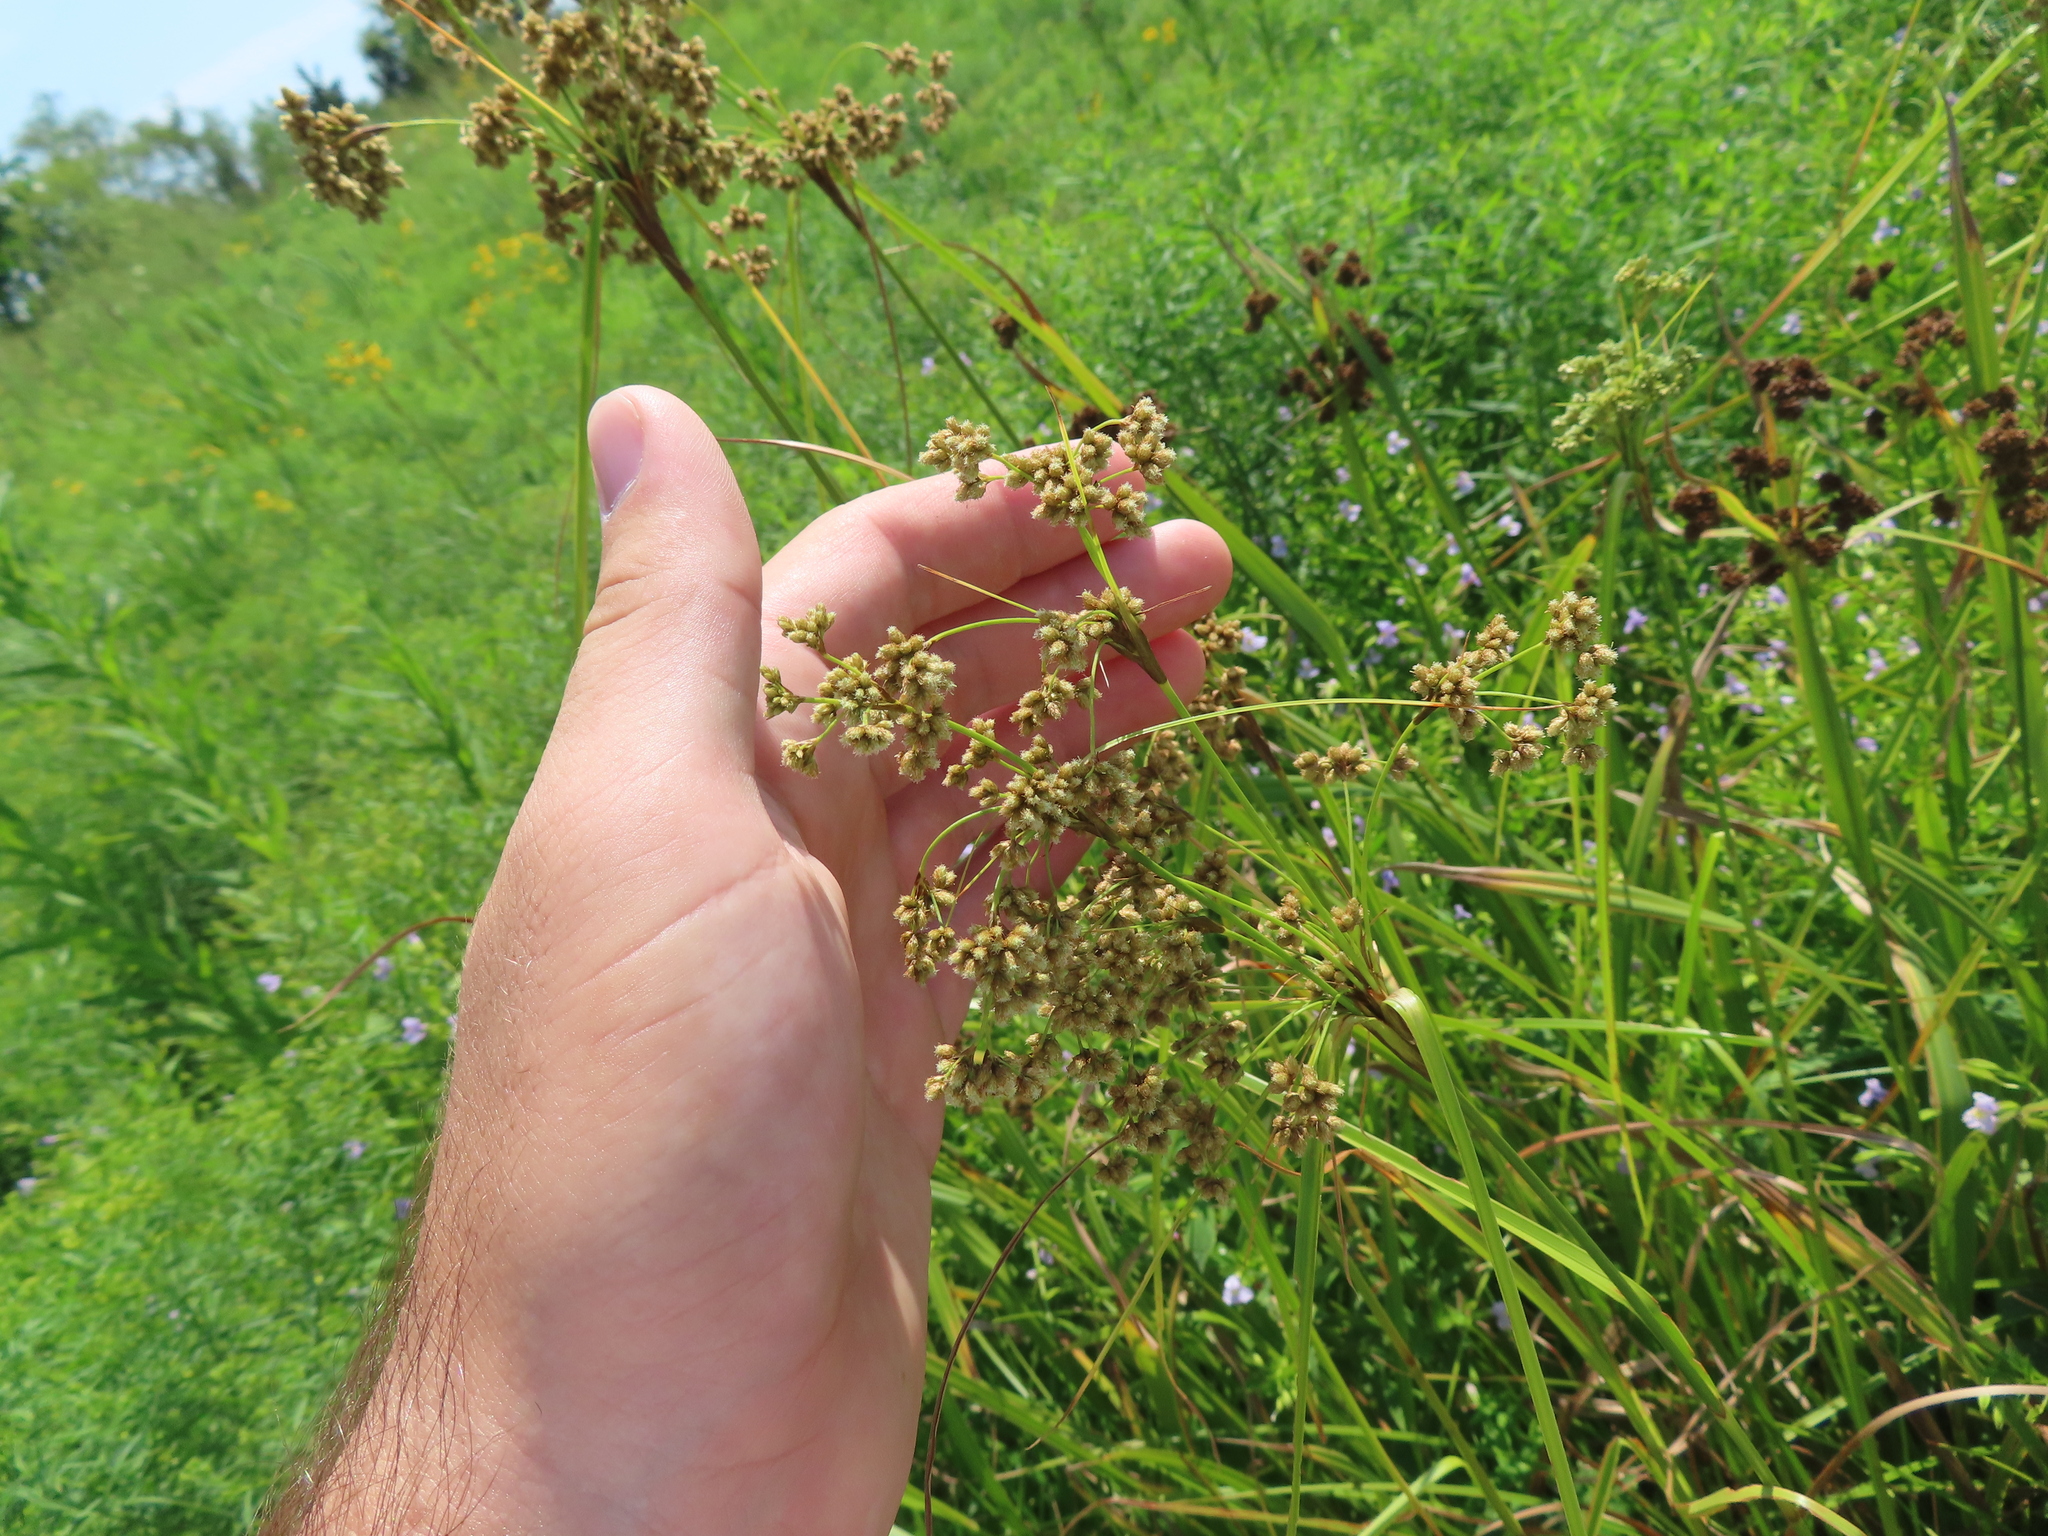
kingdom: Plantae
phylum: Tracheophyta
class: Liliopsida
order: Poales
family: Cyperaceae
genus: Scirpus
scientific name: Scirpus cyperinus
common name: Black-sheathed bulrush
